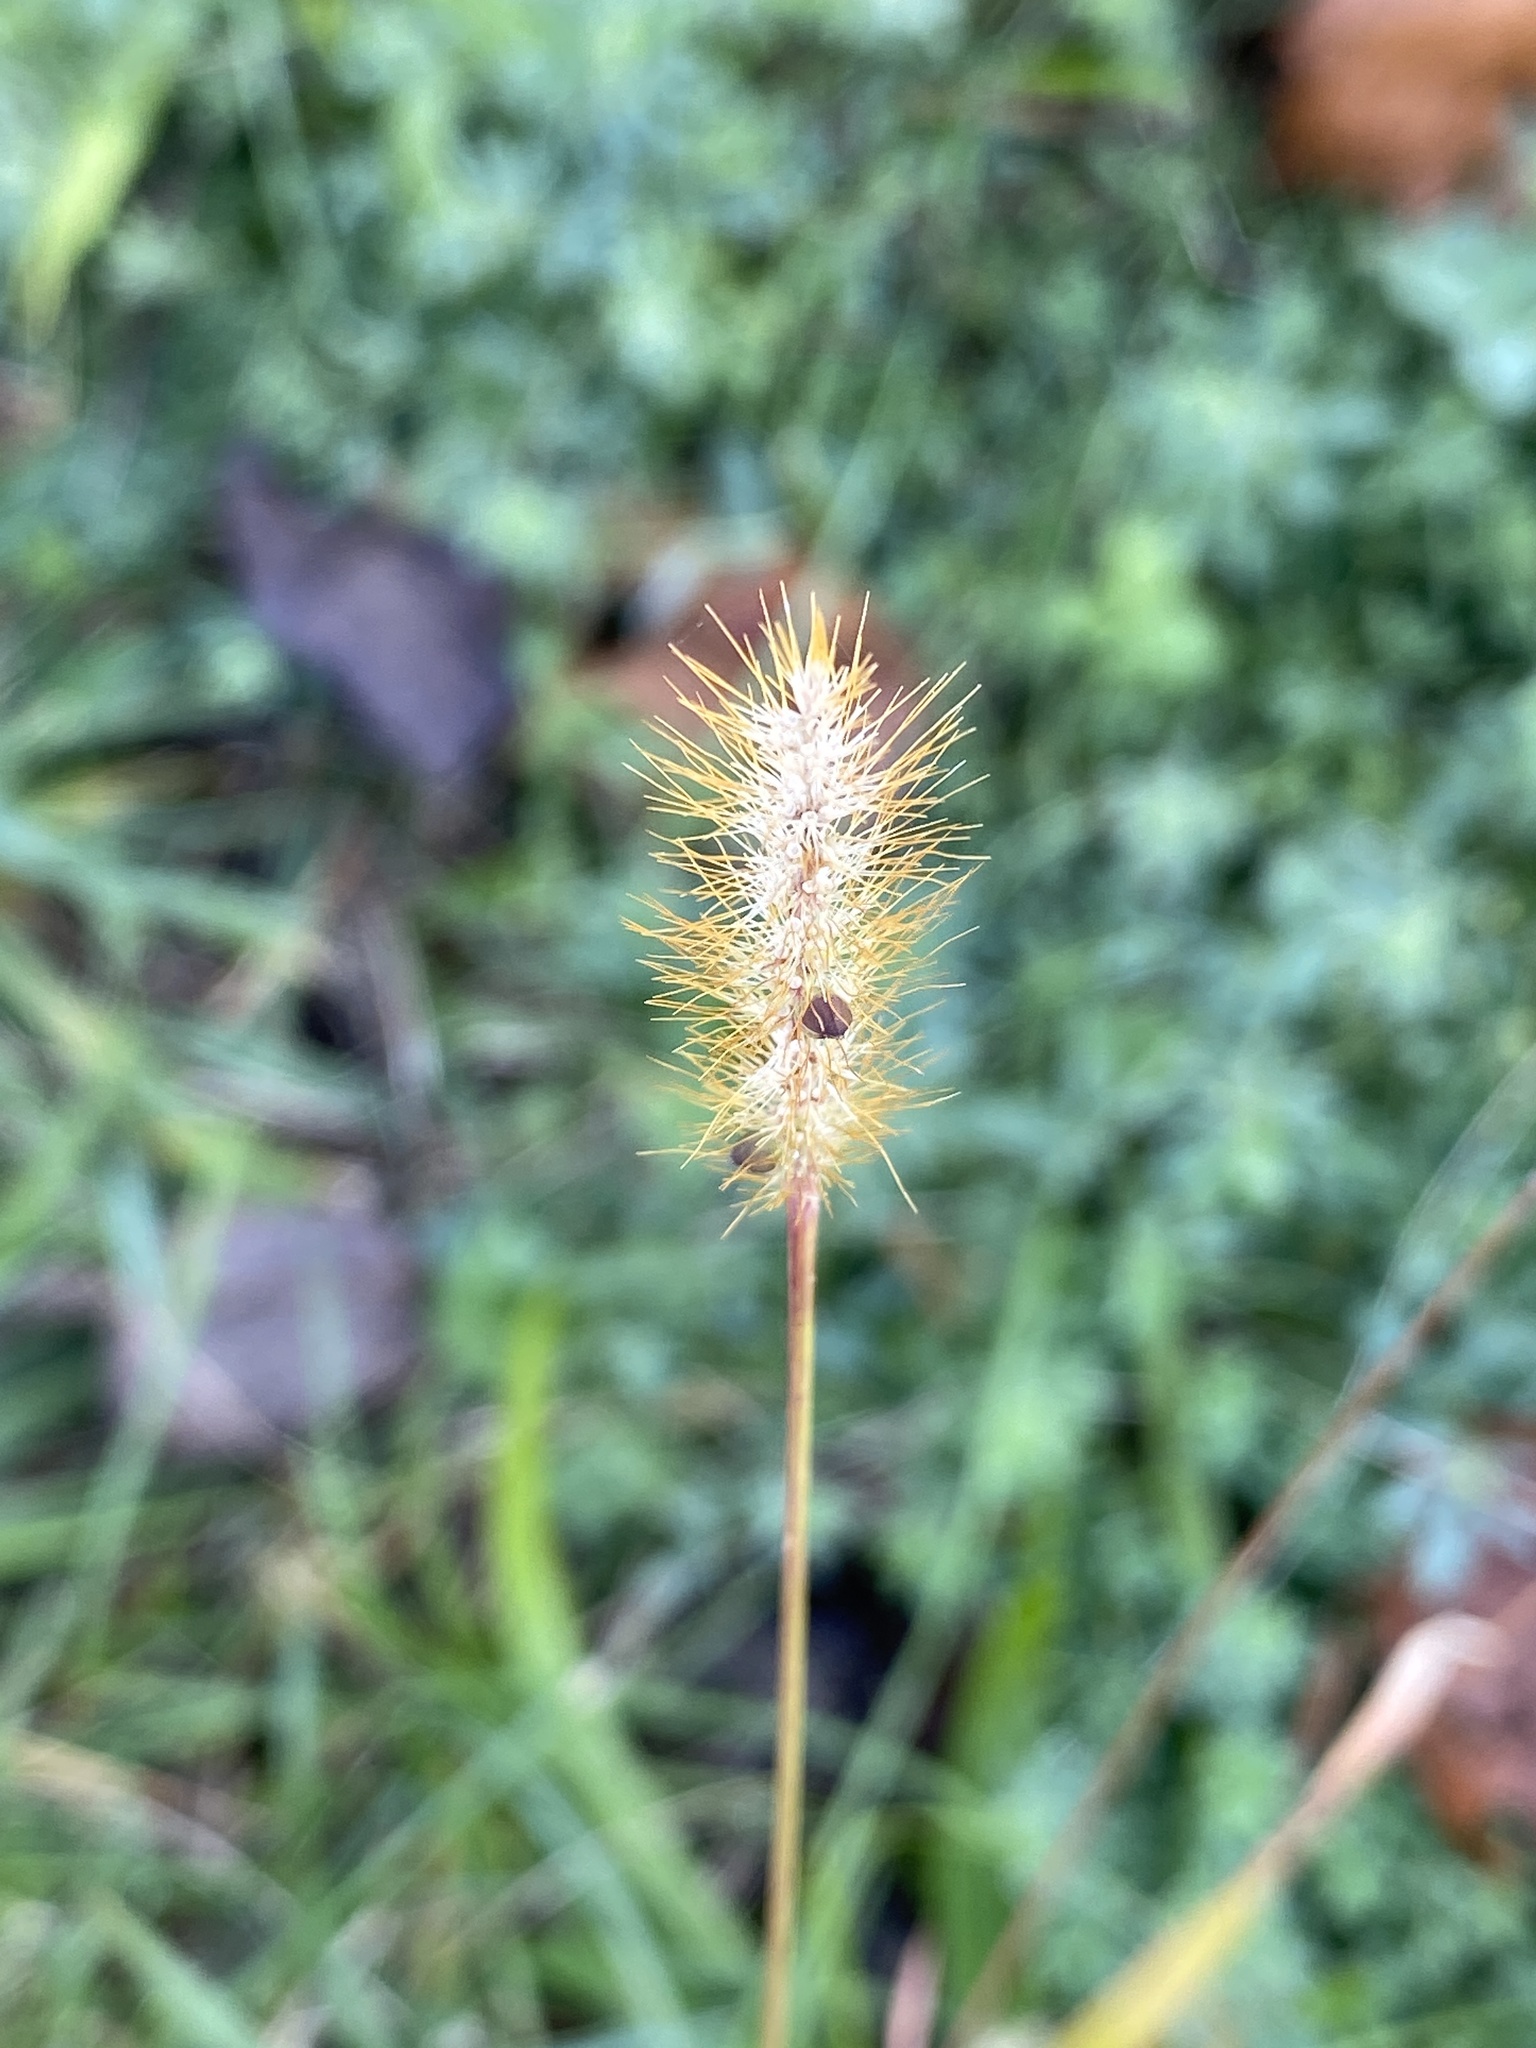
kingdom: Plantae
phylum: Tracheophyta
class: Liliopsida
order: Poales
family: Poaceae
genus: Setaria
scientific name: Setaria pumila
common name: Yellow bristle-grass
